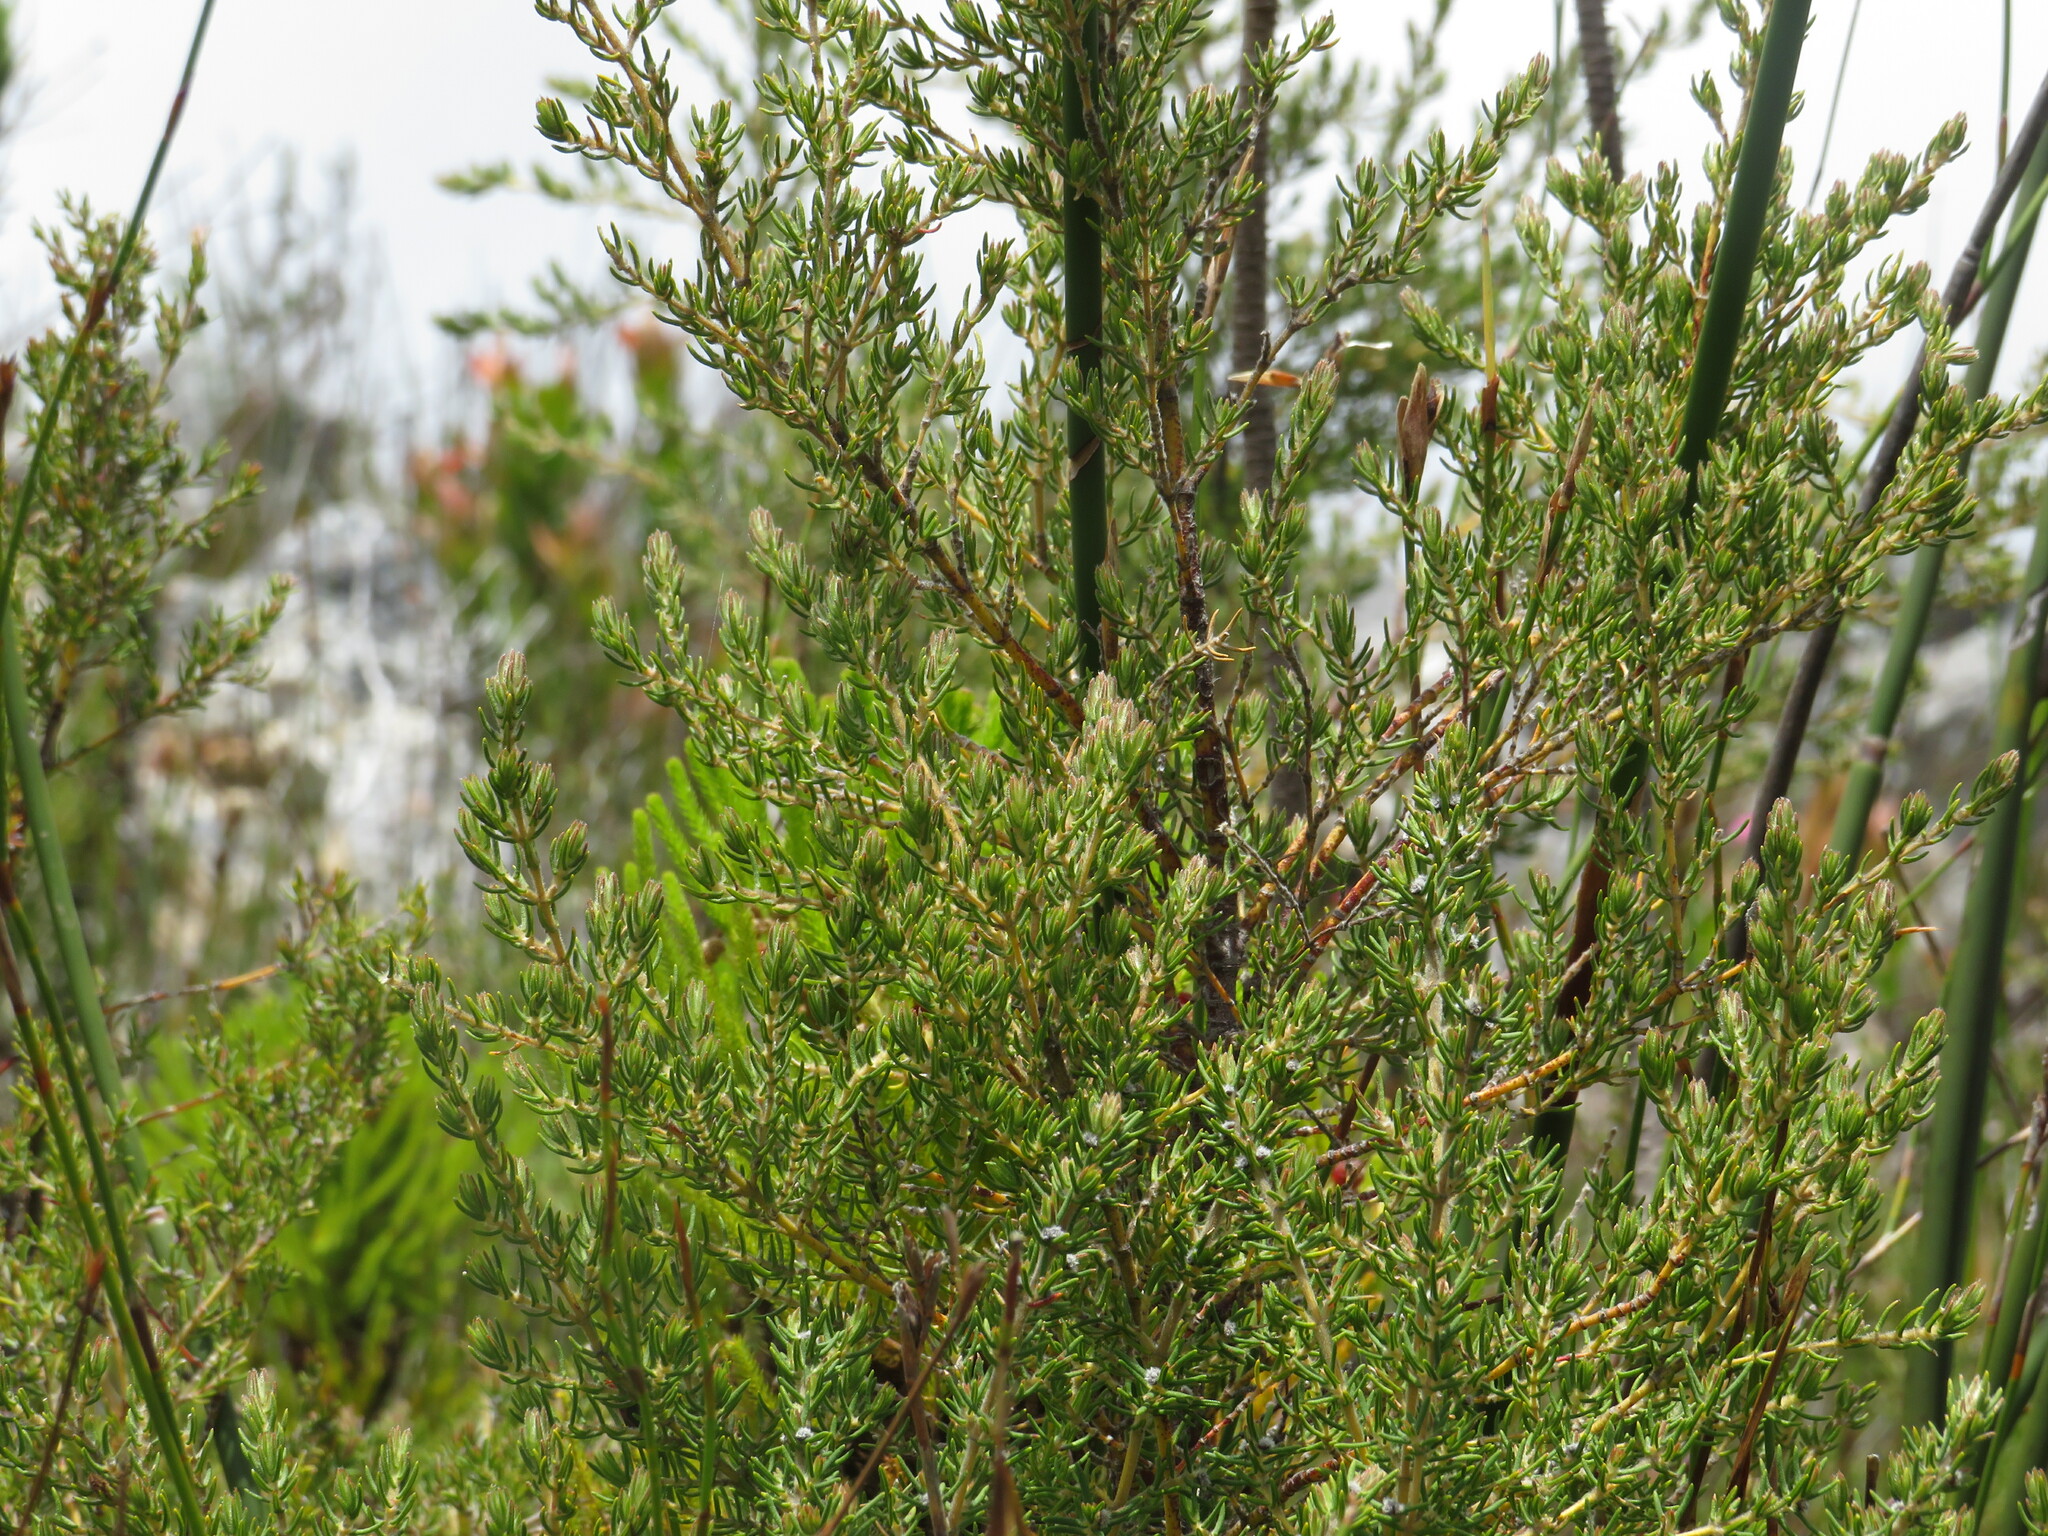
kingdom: Plantae
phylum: Tracheophyta
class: Magnoliopsida
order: Cornales
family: Grubbiaceae
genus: Grubbia
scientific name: Grubbia rosmarinifolia
